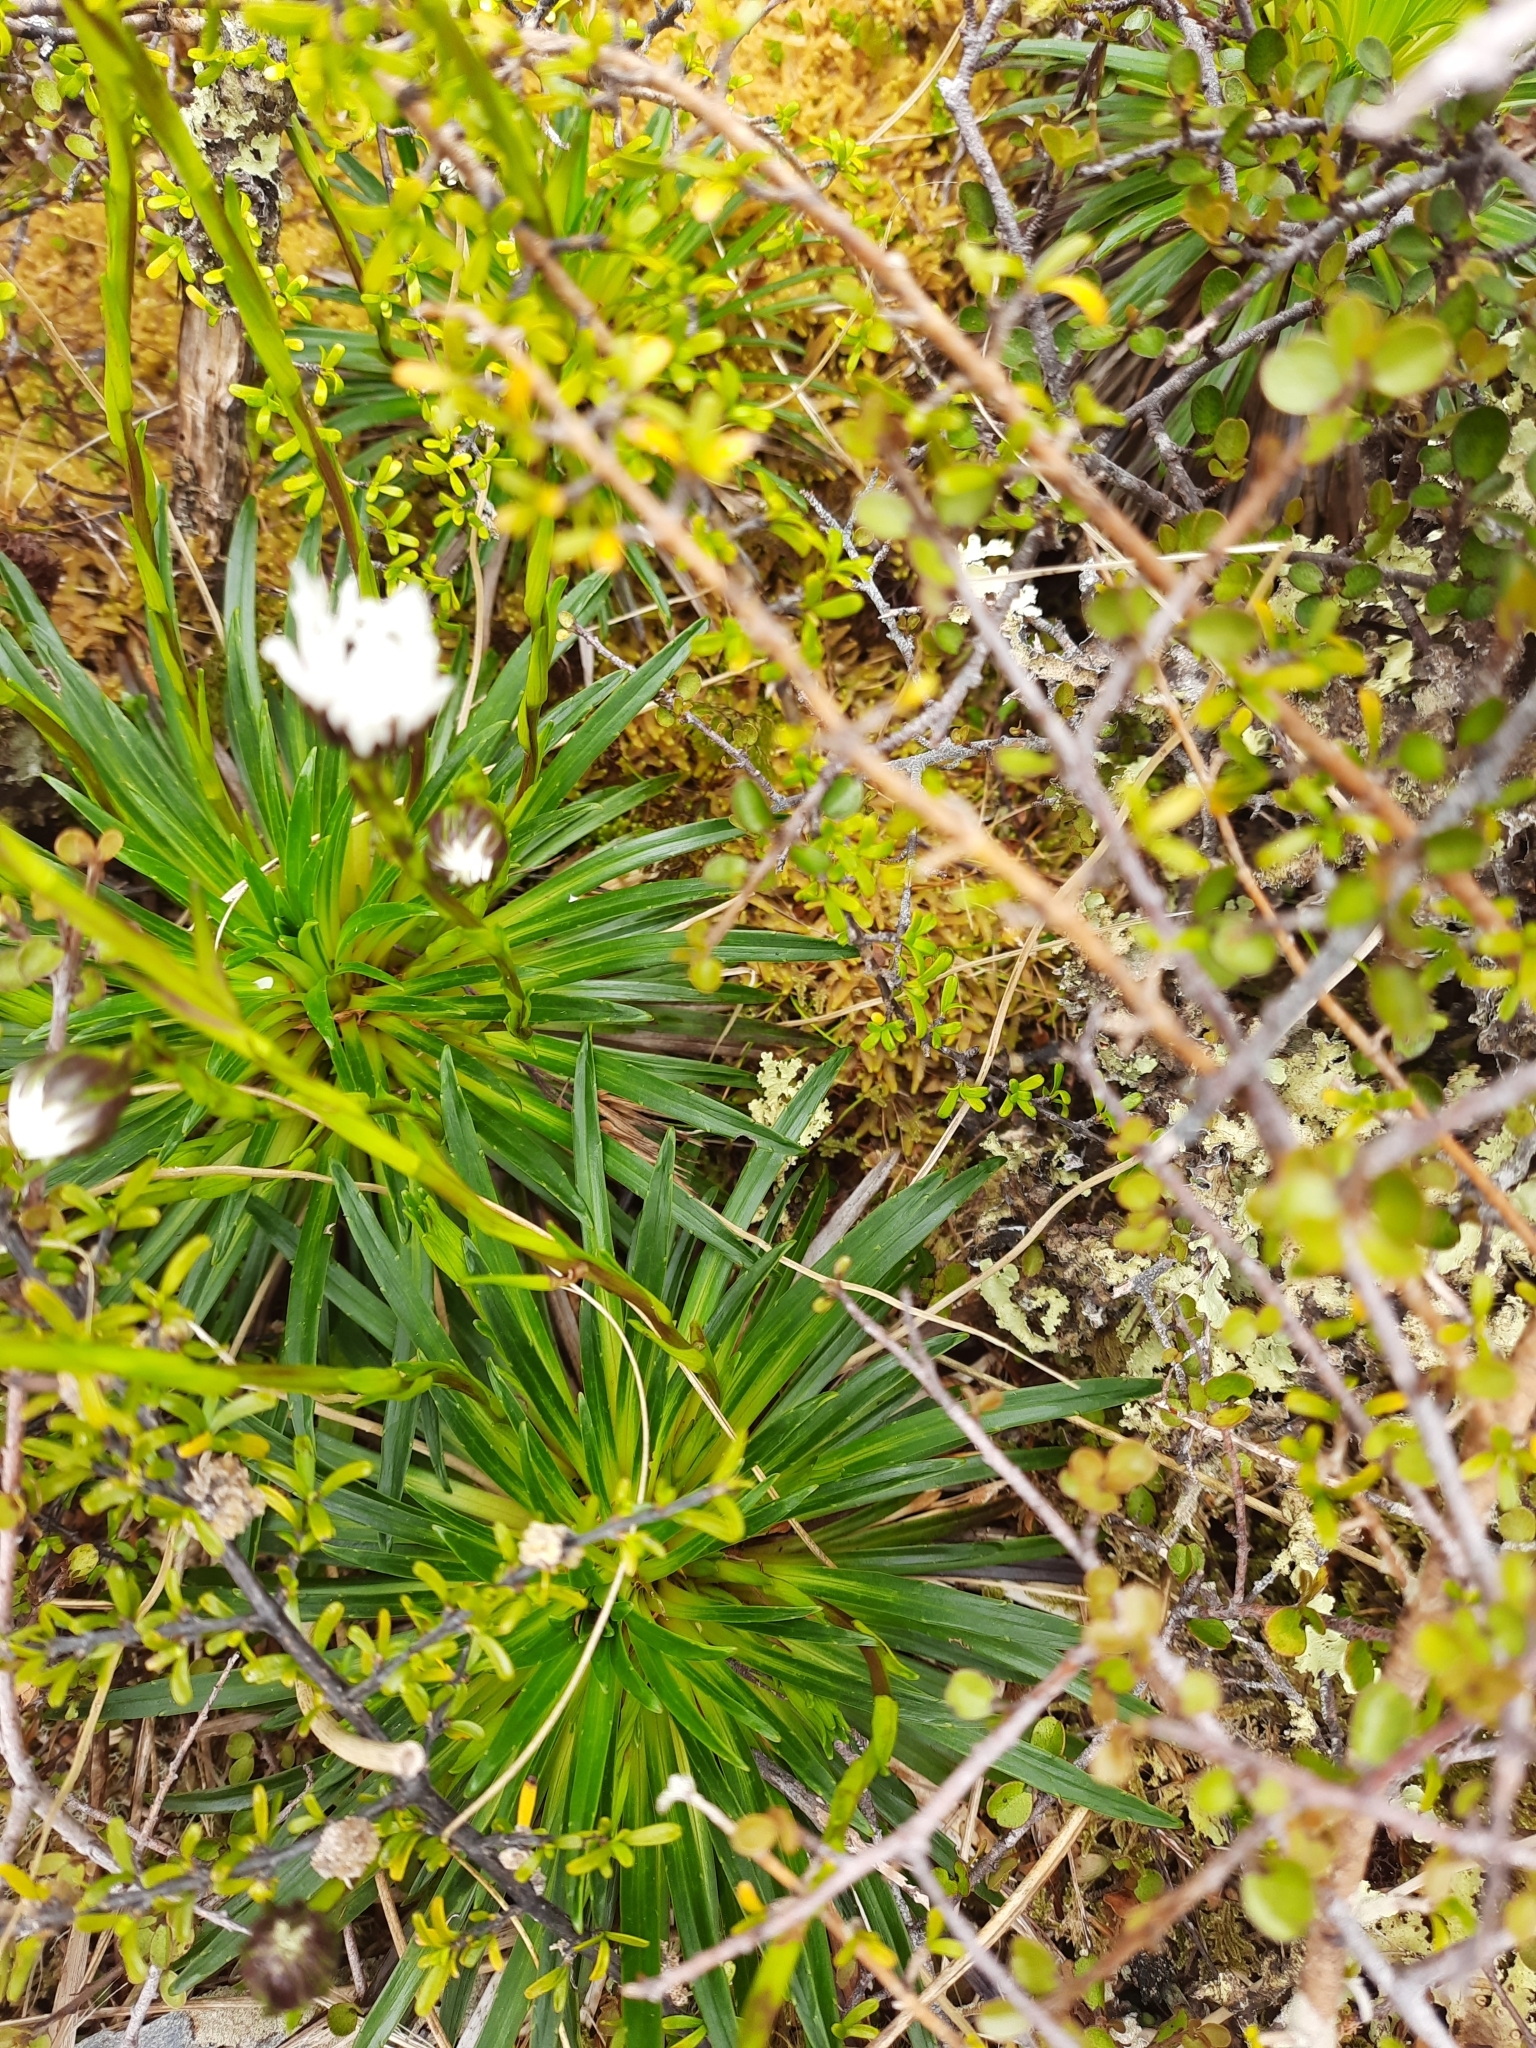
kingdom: Plantae
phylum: Tracheophyta
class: Magnoliopsida
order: Asterales
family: Asteraceae
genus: Damnamenia
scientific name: Damnamenia vernicosa
